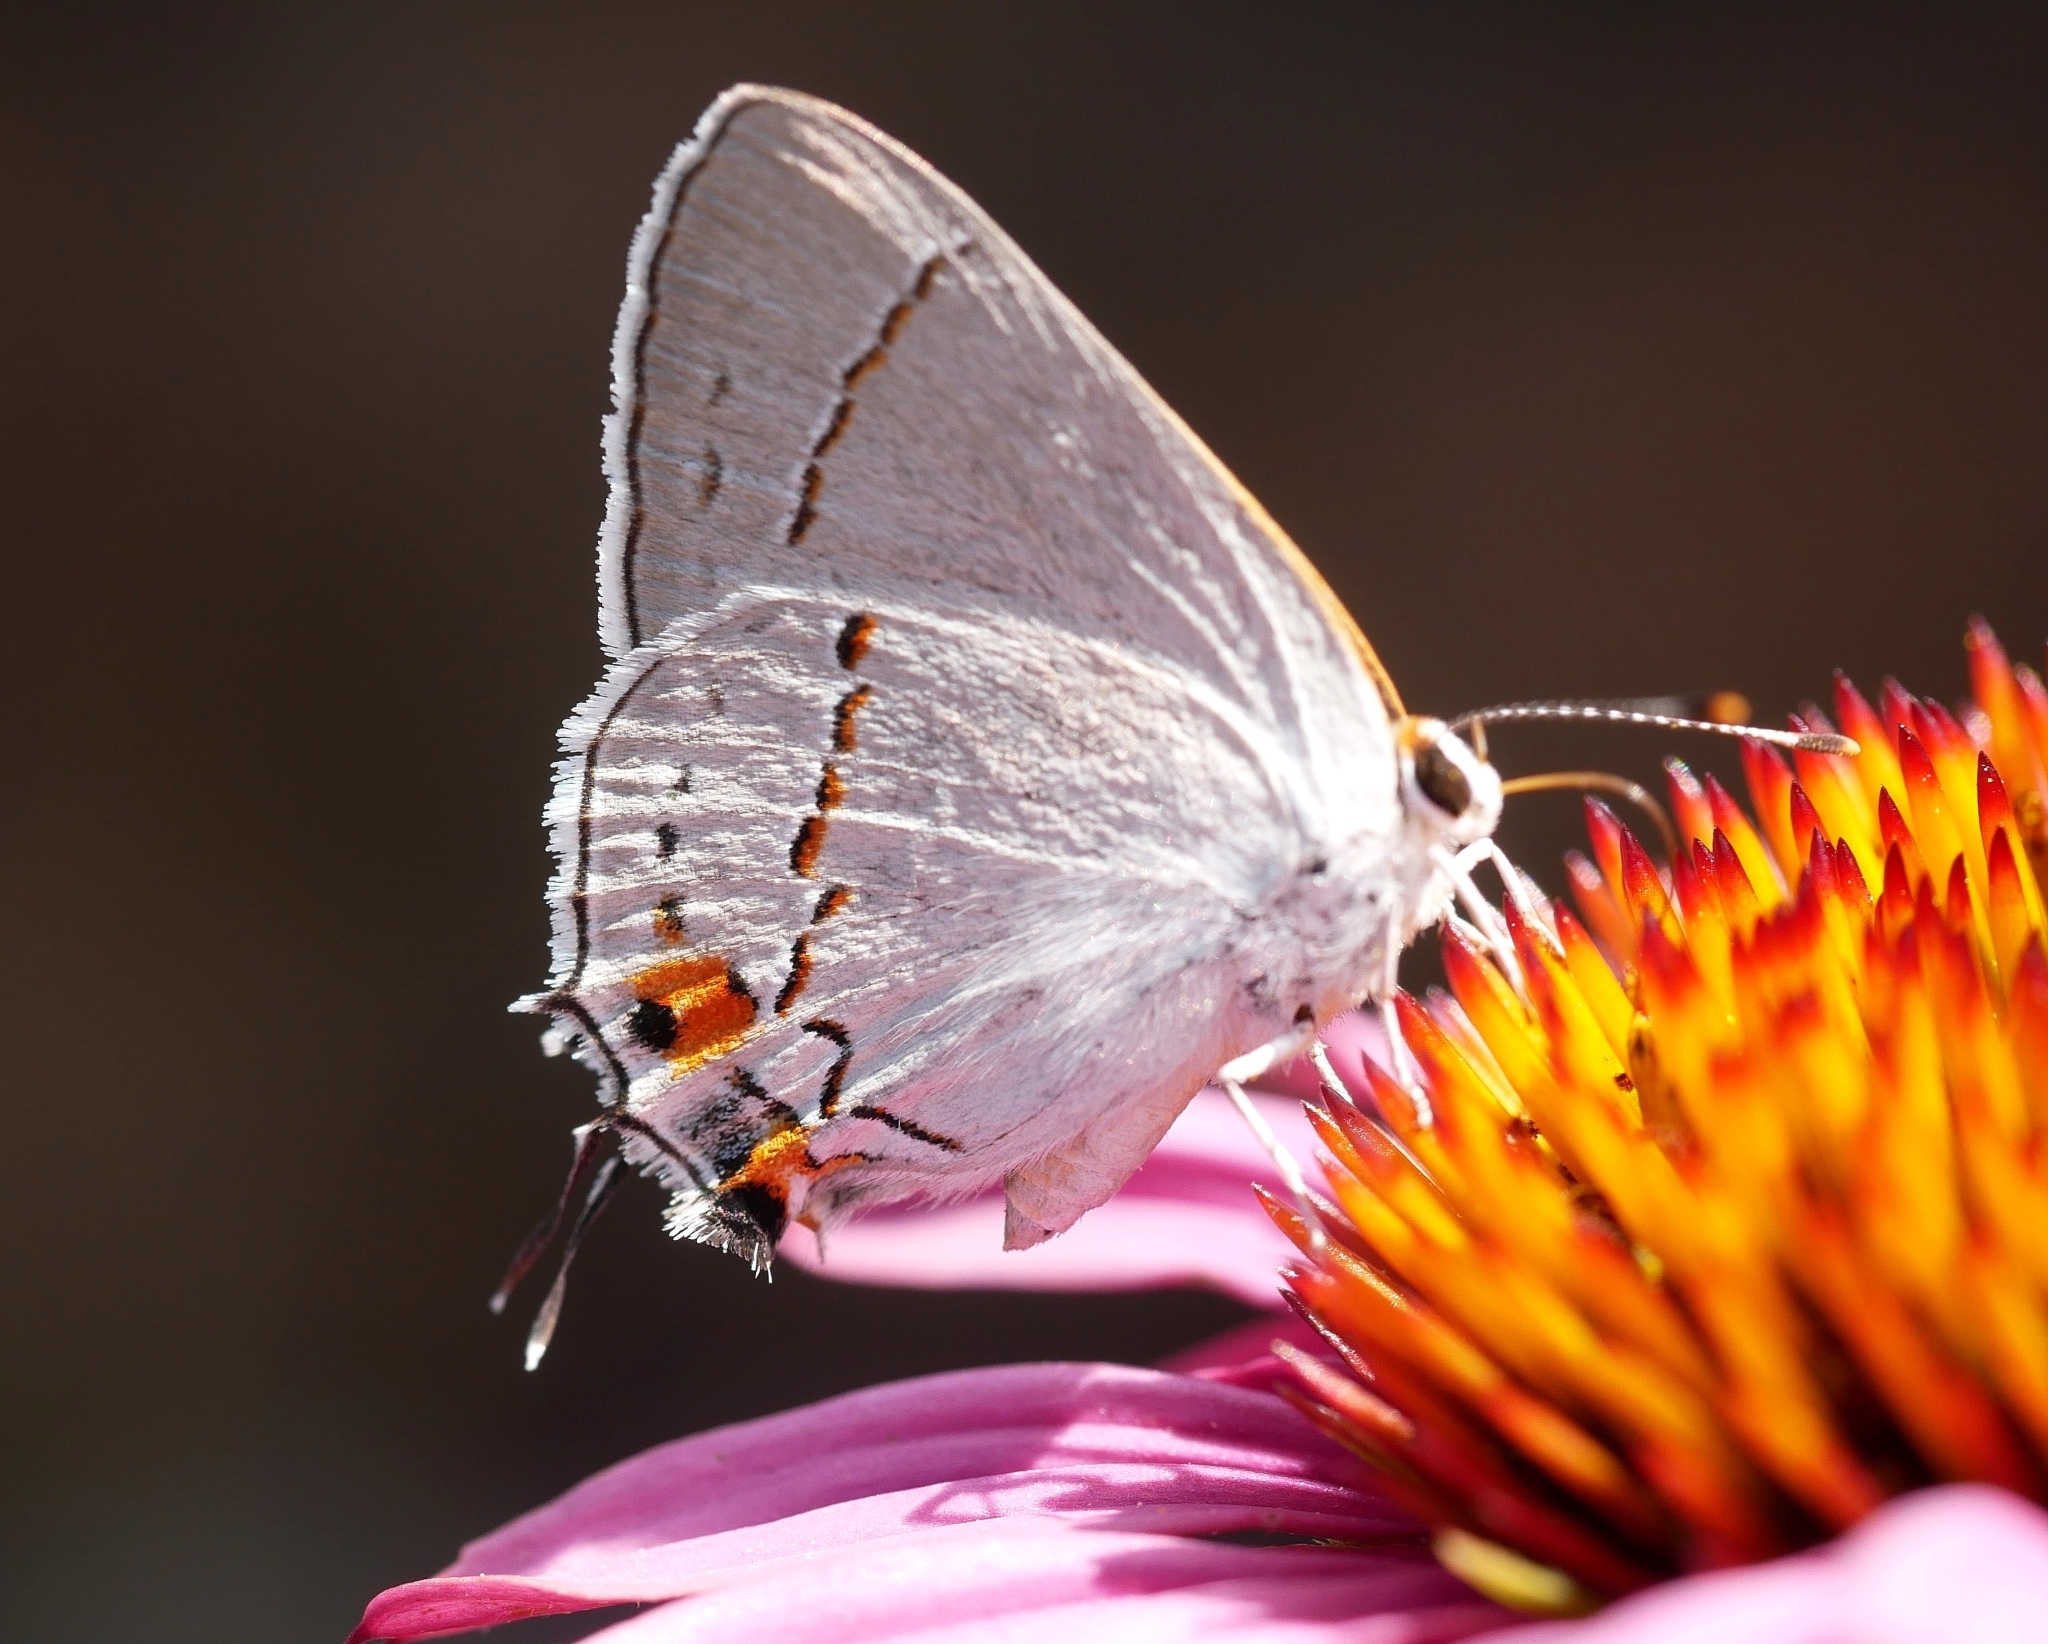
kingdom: Animalia
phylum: Arthropoda
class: Insecta
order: Lepidoptera
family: Lycaenidae
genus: Strymon
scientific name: Strymon melinus
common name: Gray hairstreak
